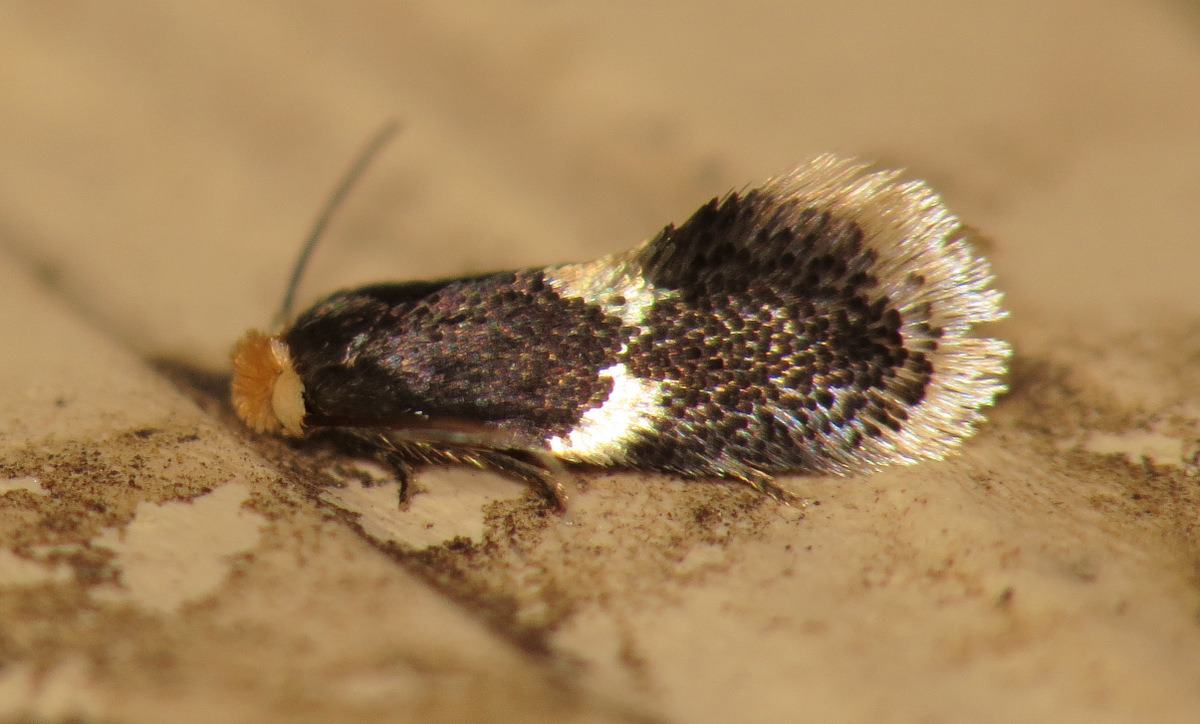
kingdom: Animalia
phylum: Arthropoda
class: Insecta
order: Lepidoptera
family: Nepticulidae
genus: Ectoedemia
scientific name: Ectoedemia similella
